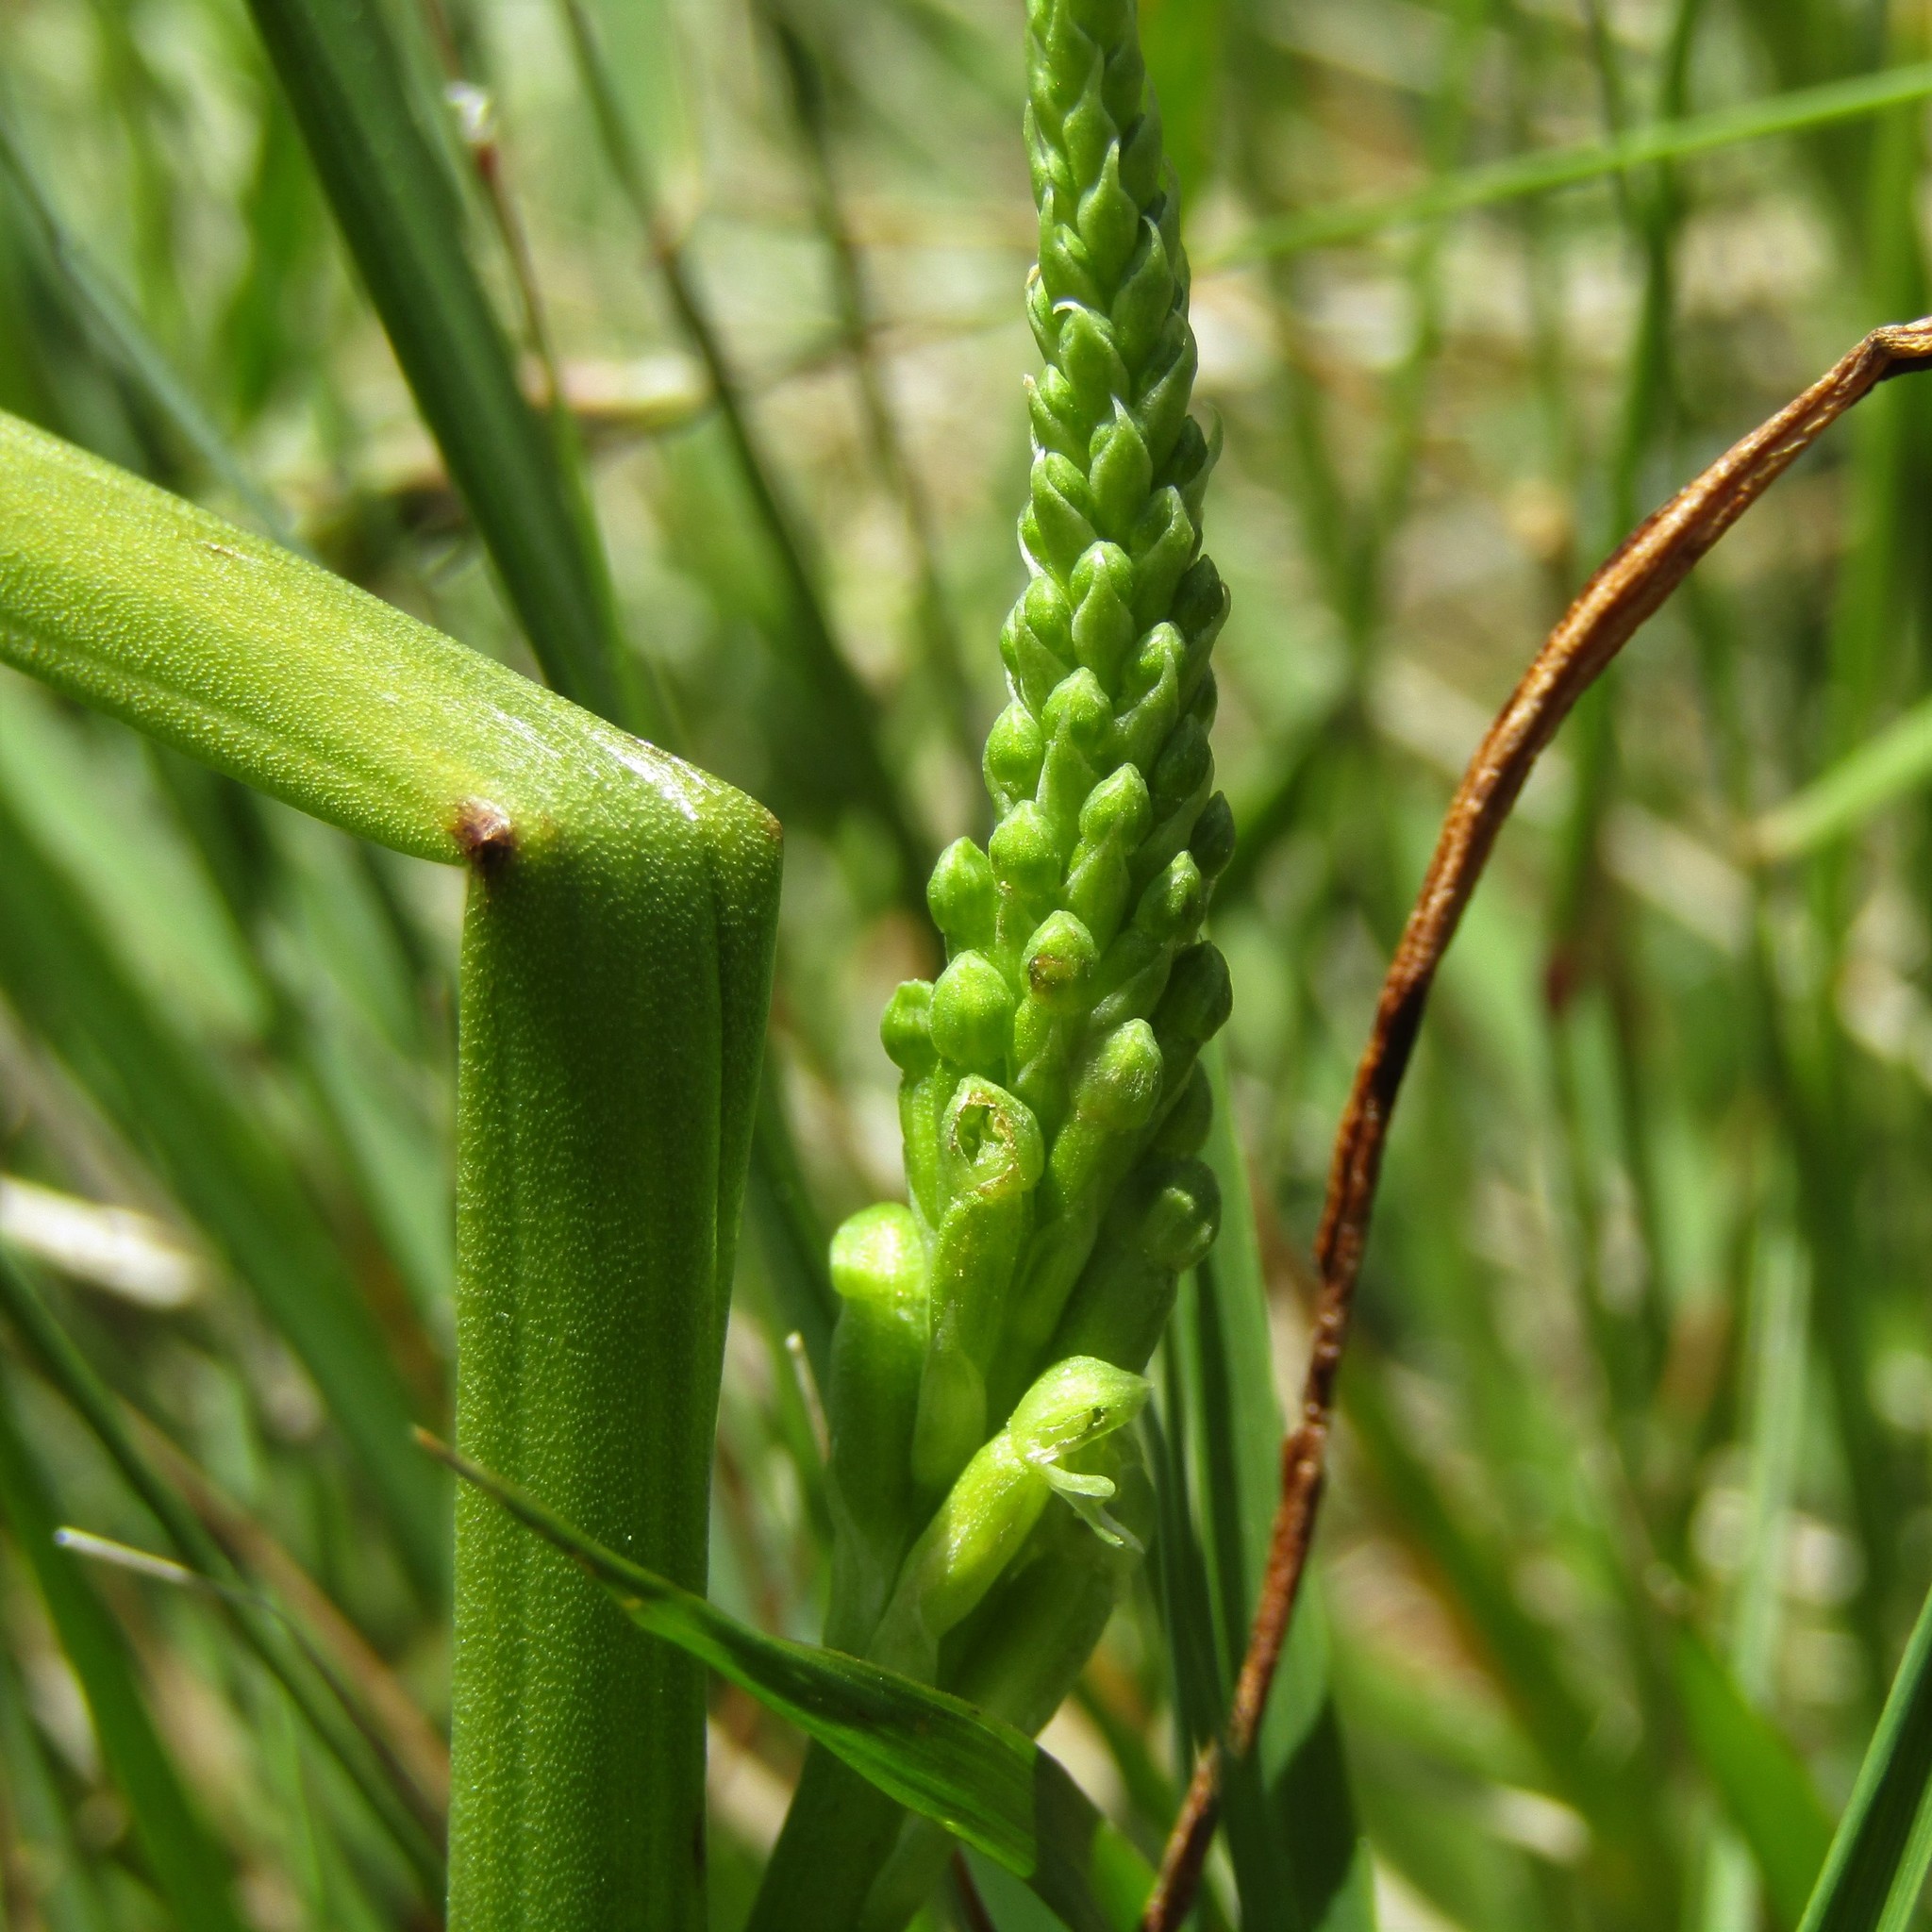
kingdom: Plantae
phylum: Tracheophyta
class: Liliopsida
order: Asparagales
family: Orchidaceae
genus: Microtis
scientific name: Microtis unifolia
